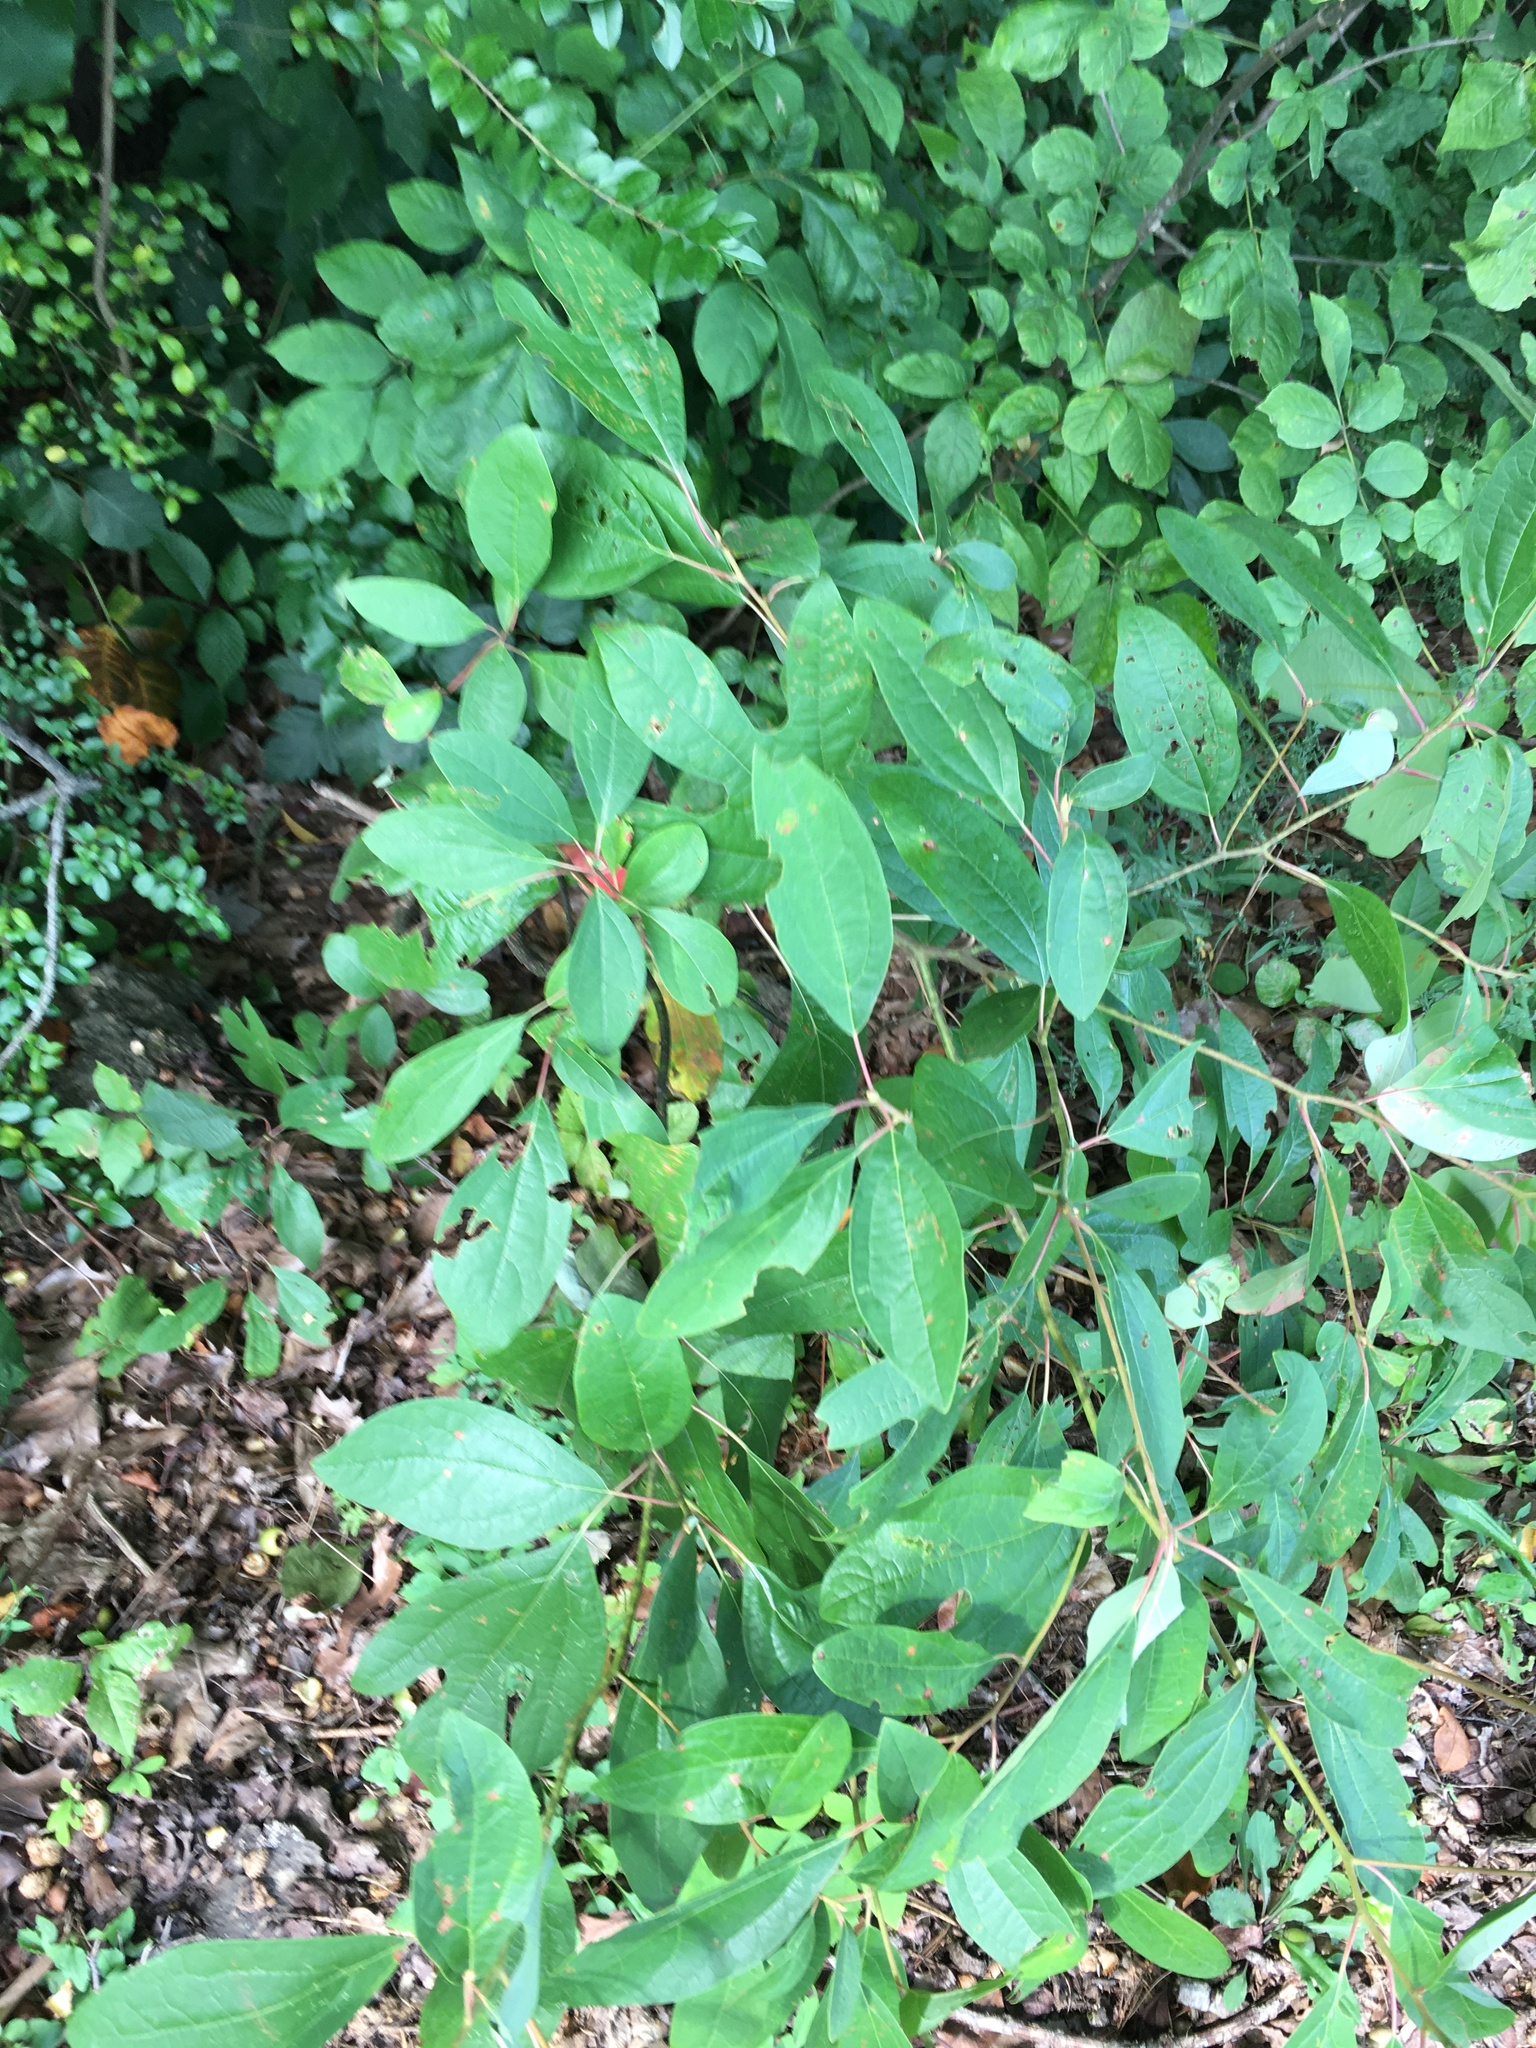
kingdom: Plantae
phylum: Tracheophyta
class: Magnoliopsida
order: Laurales
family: Lauraceae
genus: Sassafras
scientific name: Sassafras albidum
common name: Sassafras
